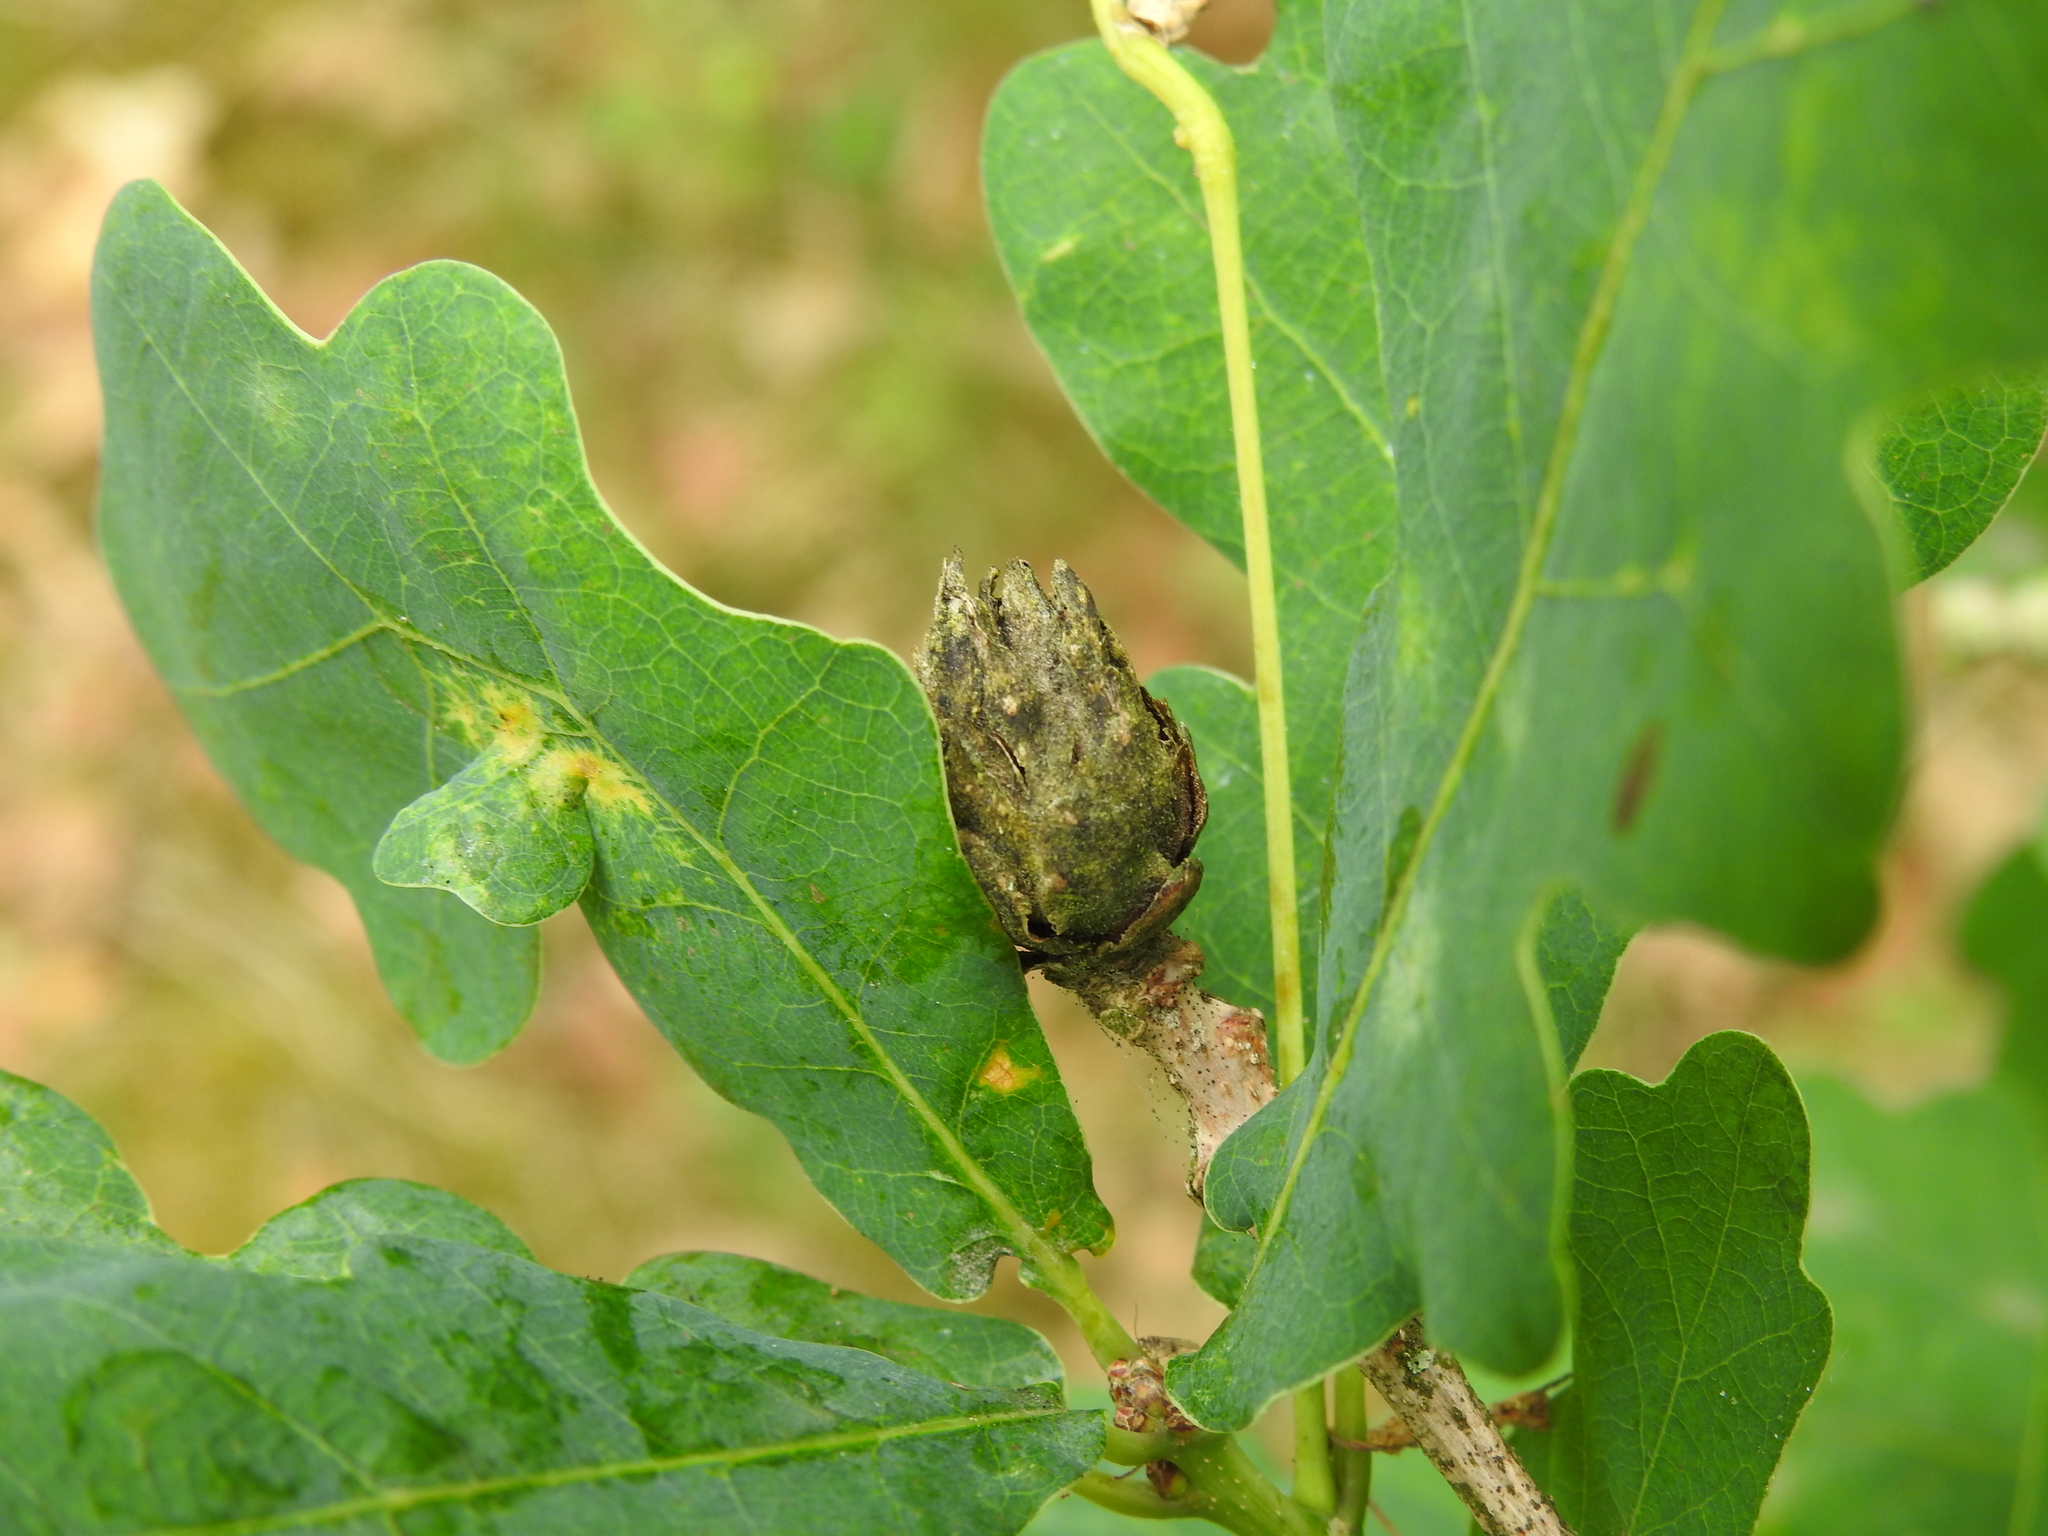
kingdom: Animalia
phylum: Arthropoda
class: Insecta
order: Hymenoptera
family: Cynipidae
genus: Andricus
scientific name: Andricus foecundatrix
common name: Artichoke gall
